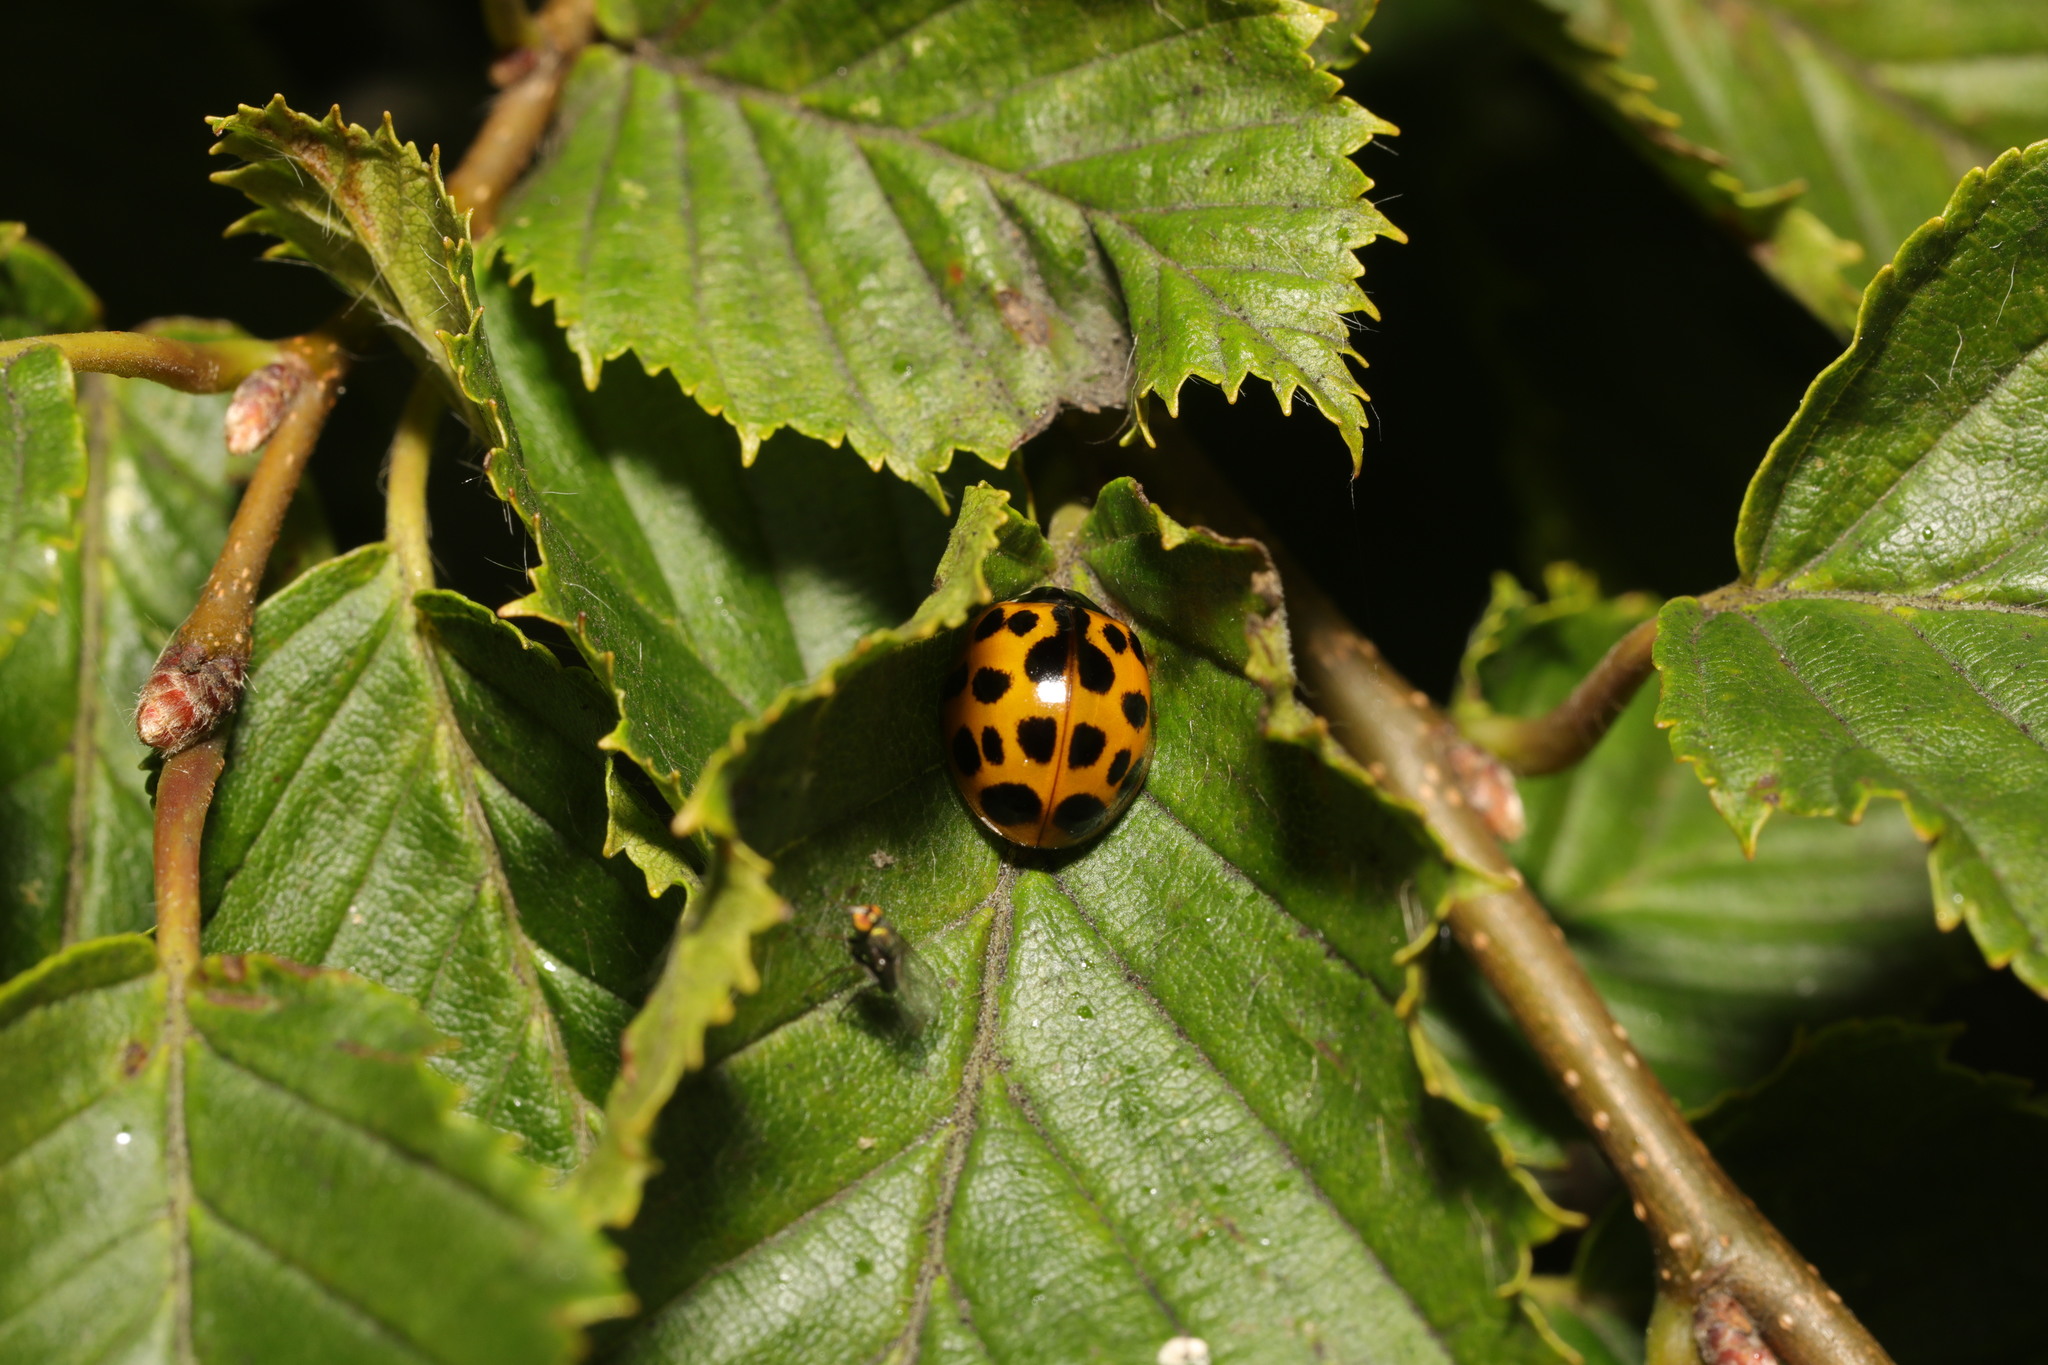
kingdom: Animalia
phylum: Arthropoda
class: Insecta
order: Coleoptera
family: Coccinellidae
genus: Harmonia
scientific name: Harmonia axyridis
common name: Harlequin ladybird
